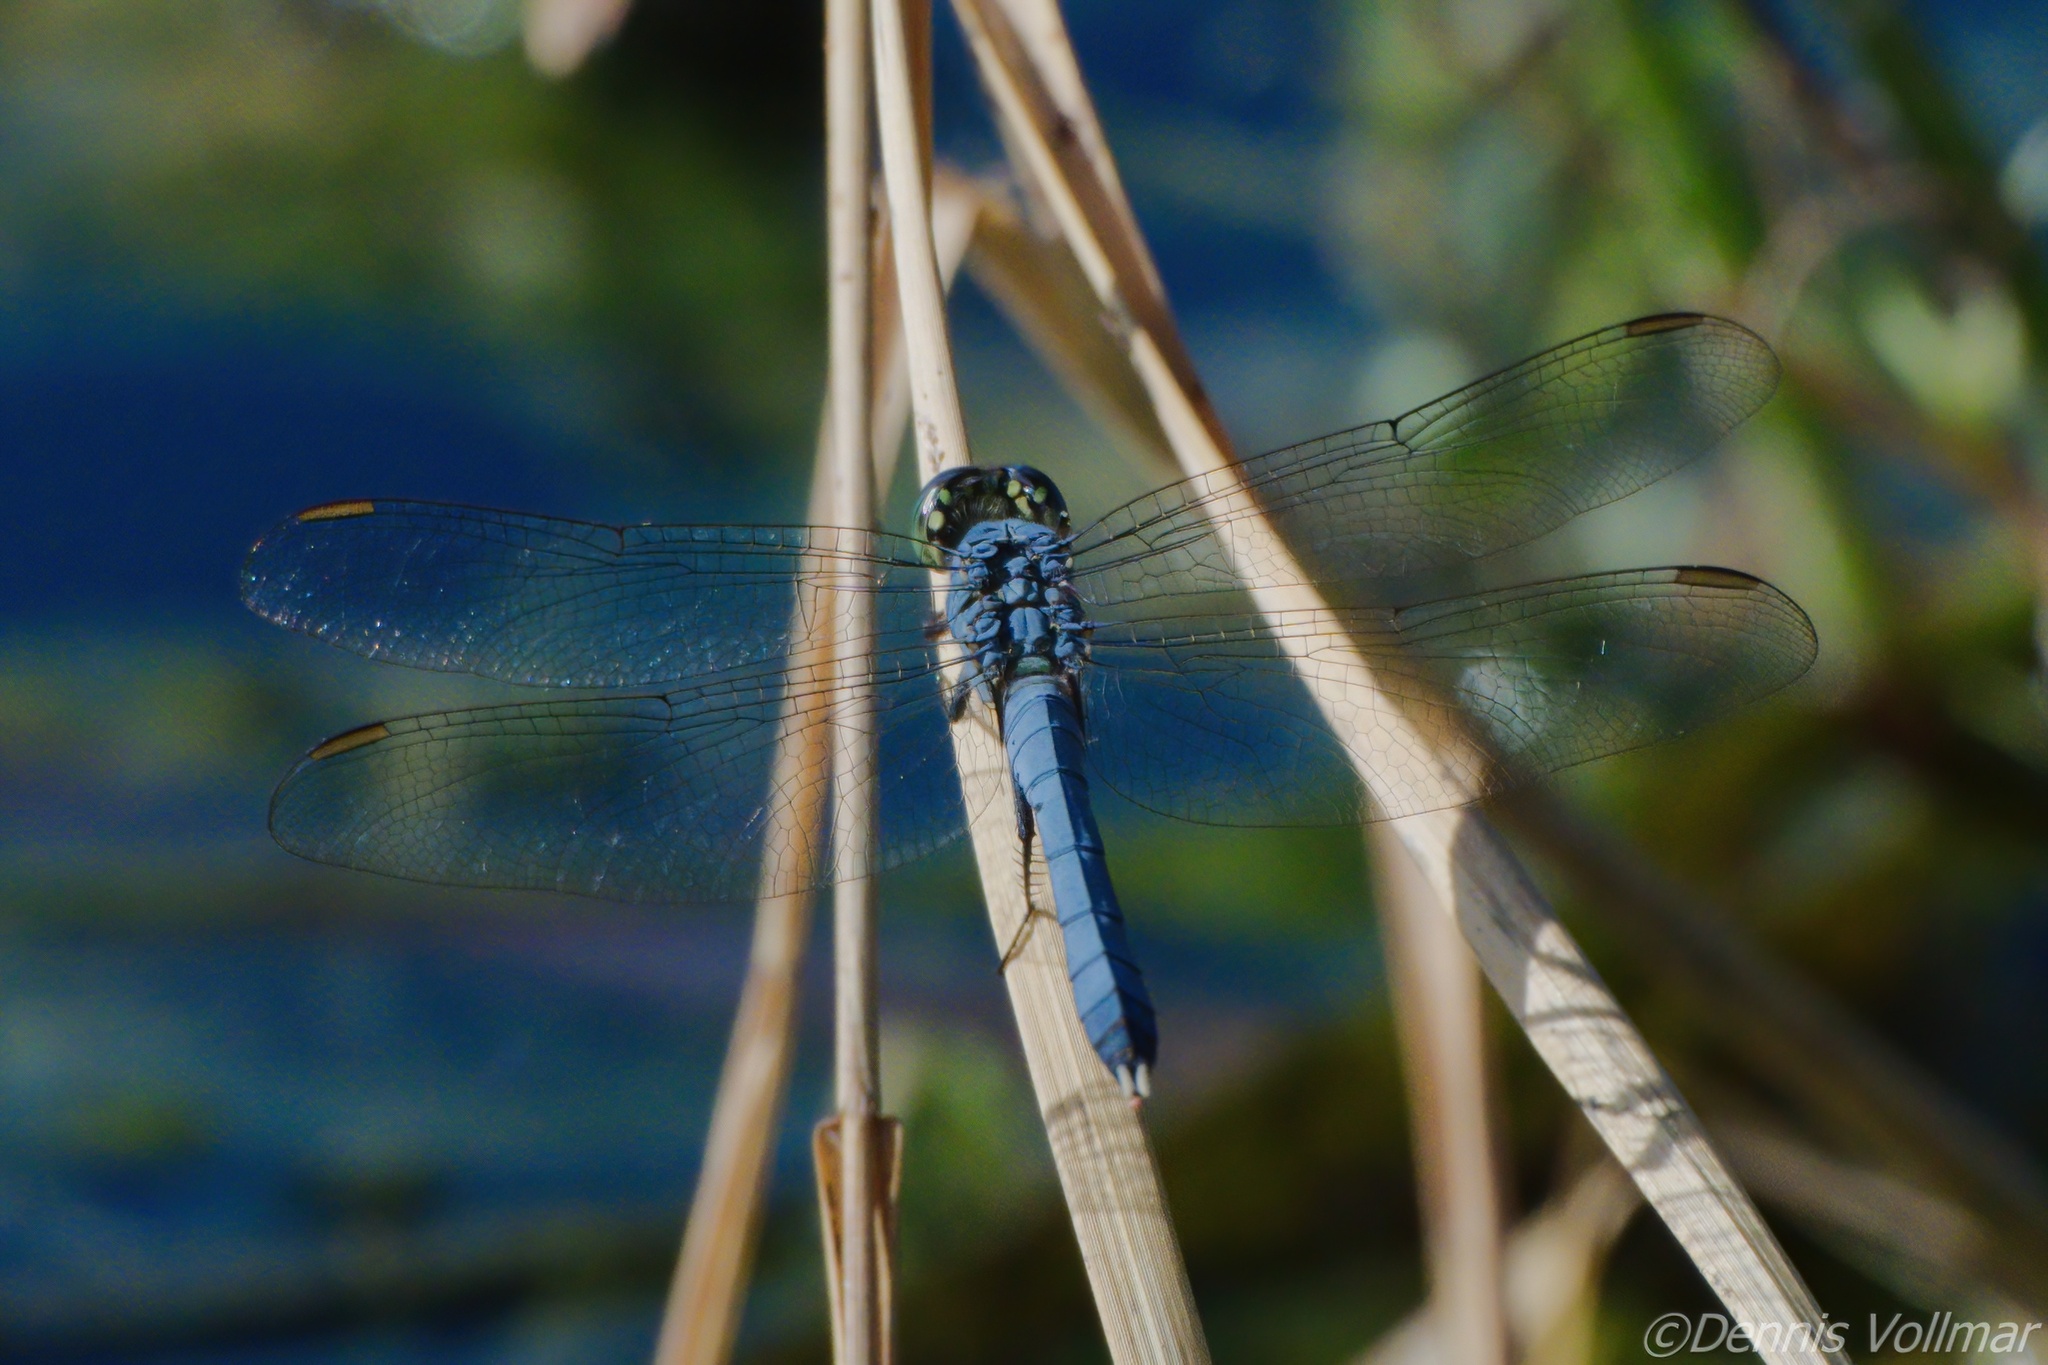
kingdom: Animalia
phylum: Arthropoda
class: Insecta
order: Odonata
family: Libellulidae
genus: Erythemis
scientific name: Erythemis simplicicollis
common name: Eastern pondhawk
